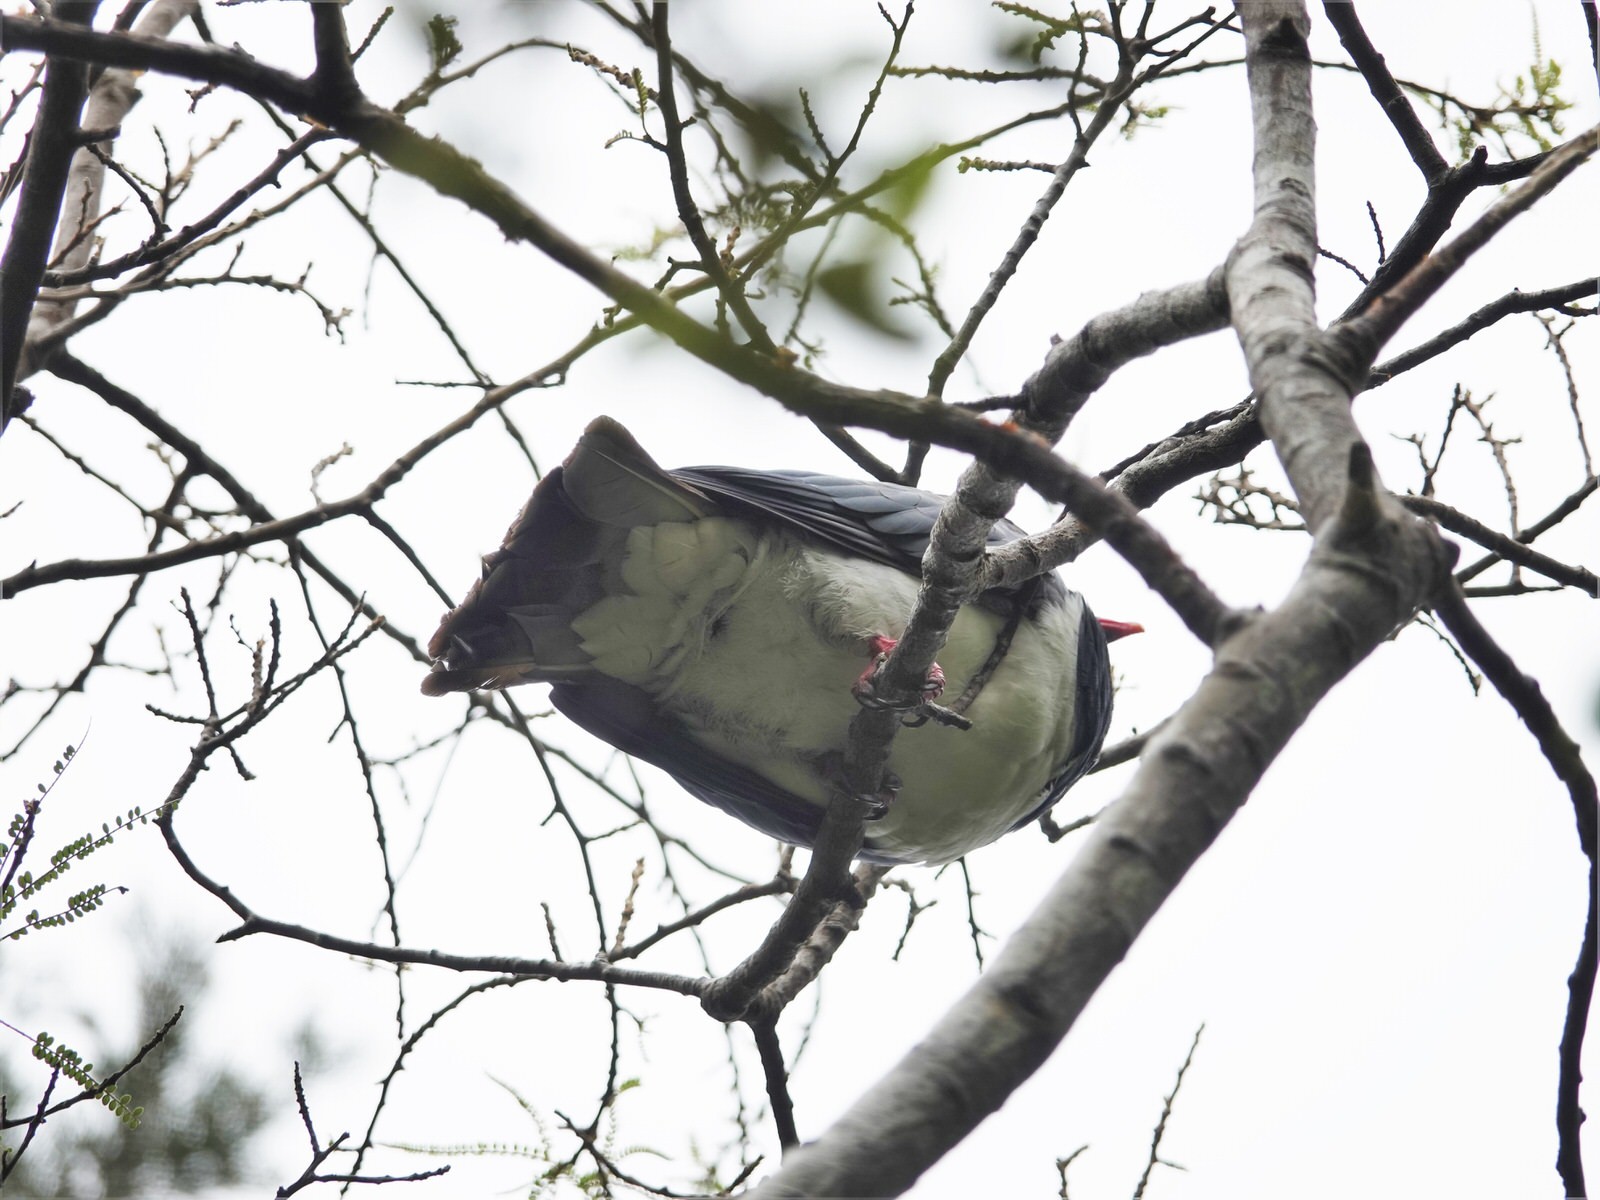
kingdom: Animalia
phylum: Chordata
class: Aves
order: Columbiformes
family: Columbidae
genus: Hemiphaga
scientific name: Hemiphaga novaeseelandiae
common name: New zealand pigeon
